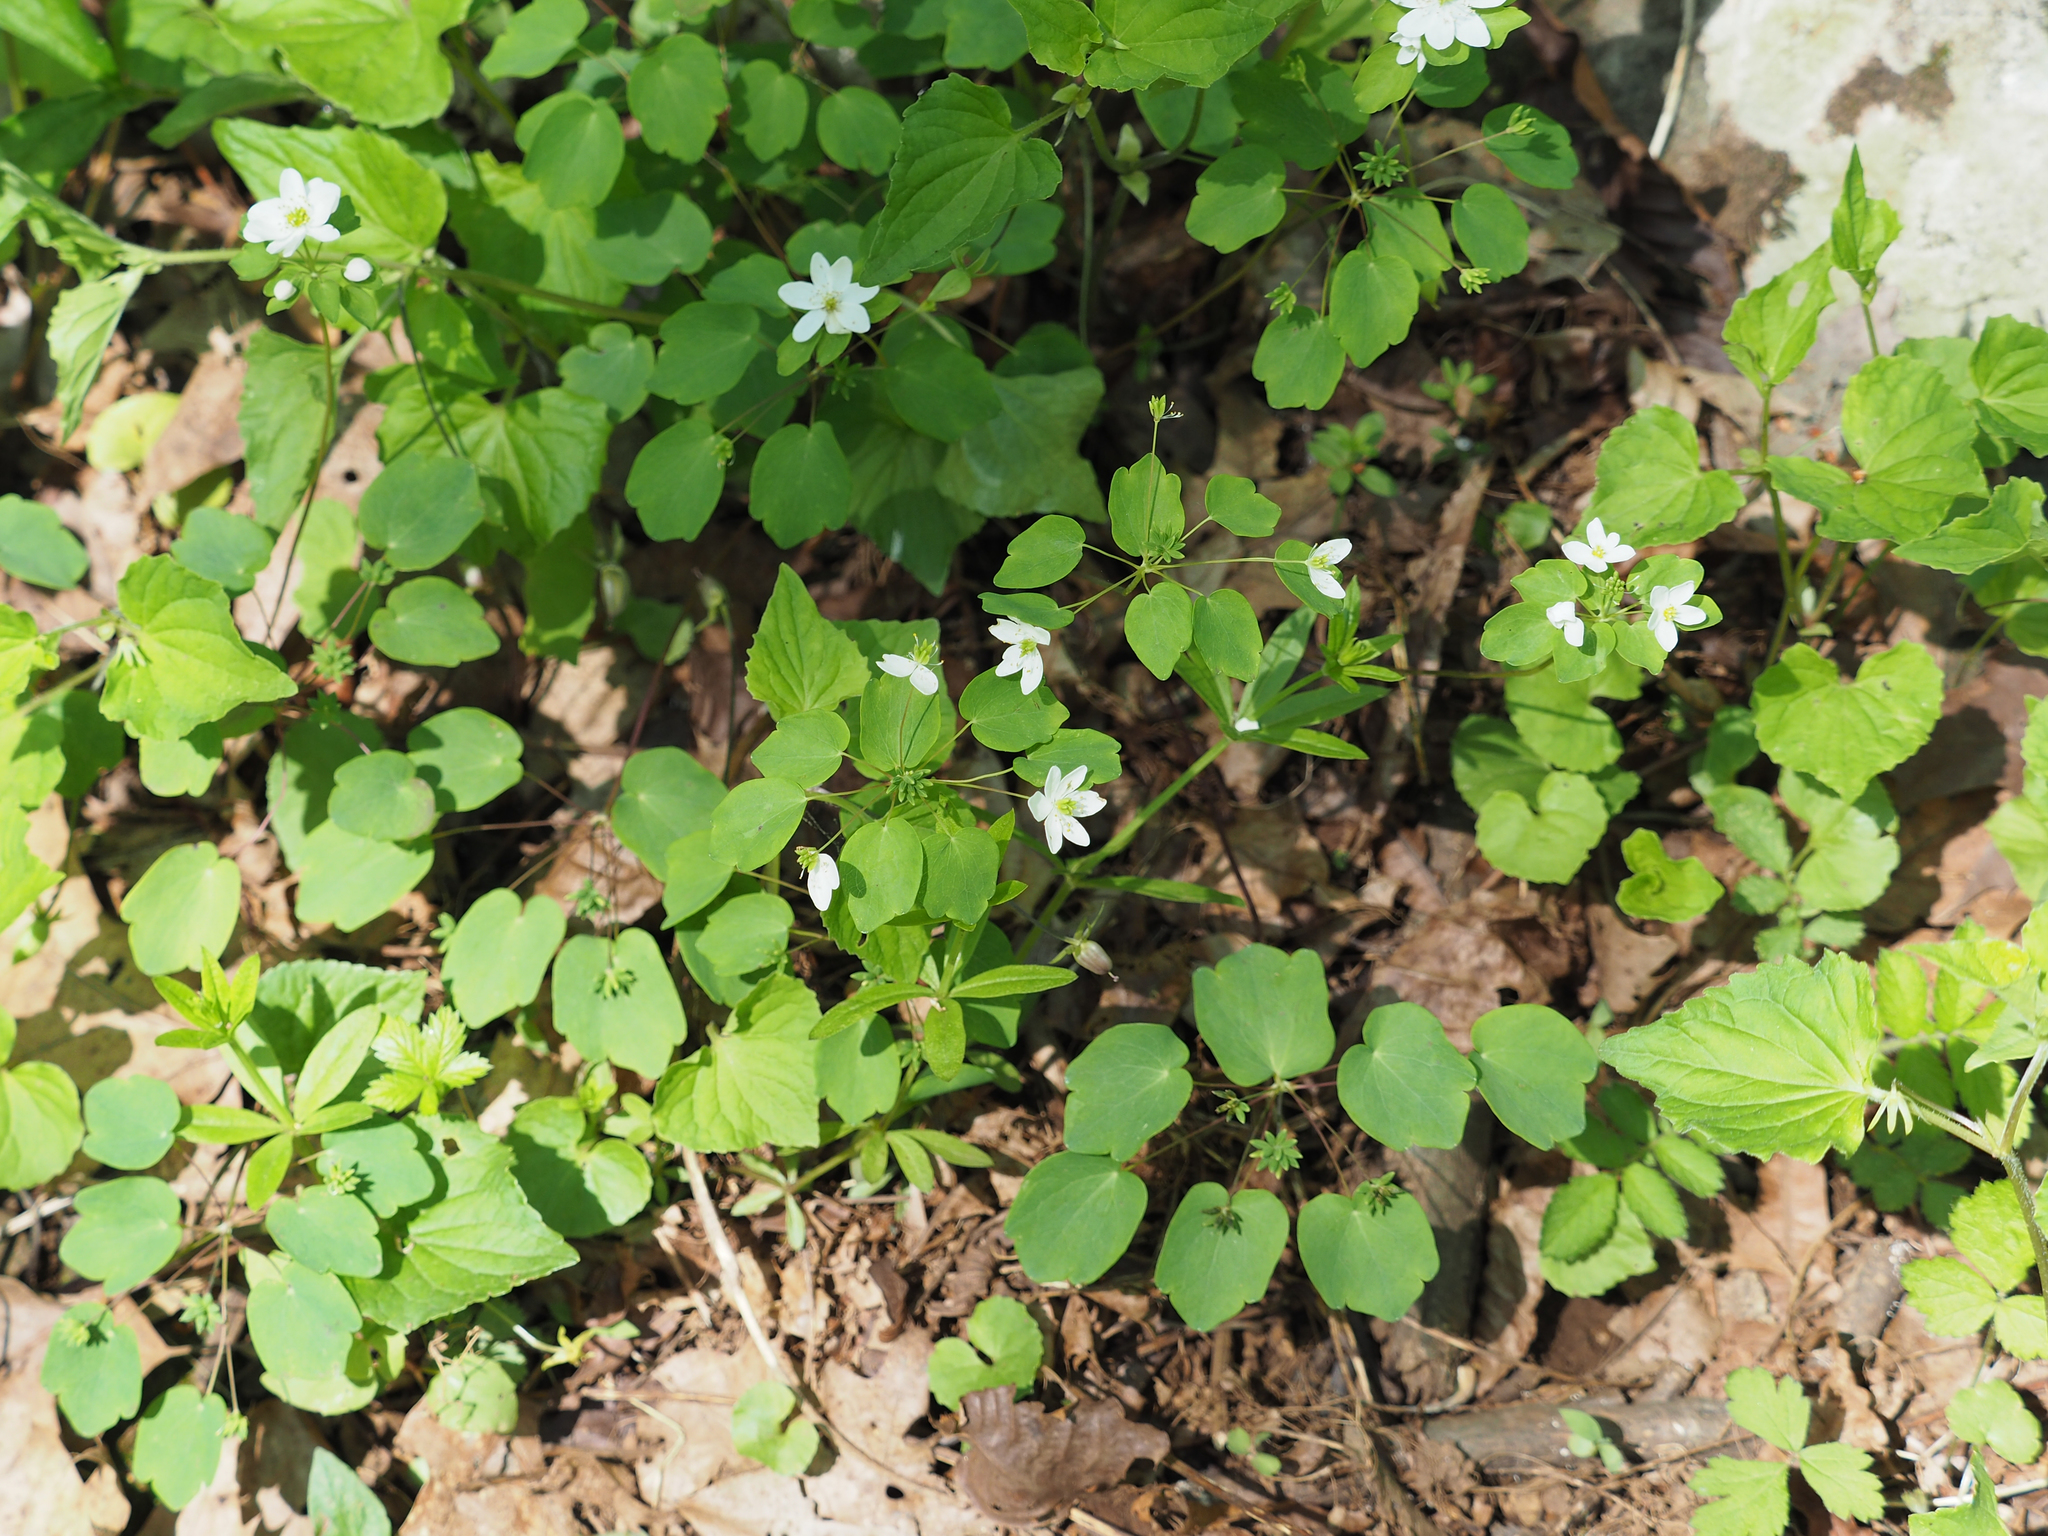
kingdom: Plantae
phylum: Tracheophyta
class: Magnoliopsida
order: Ranunculales
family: Ranunculaceae
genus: Thalictrum
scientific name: Thalictrum thalictroides
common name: Rue-anemone
